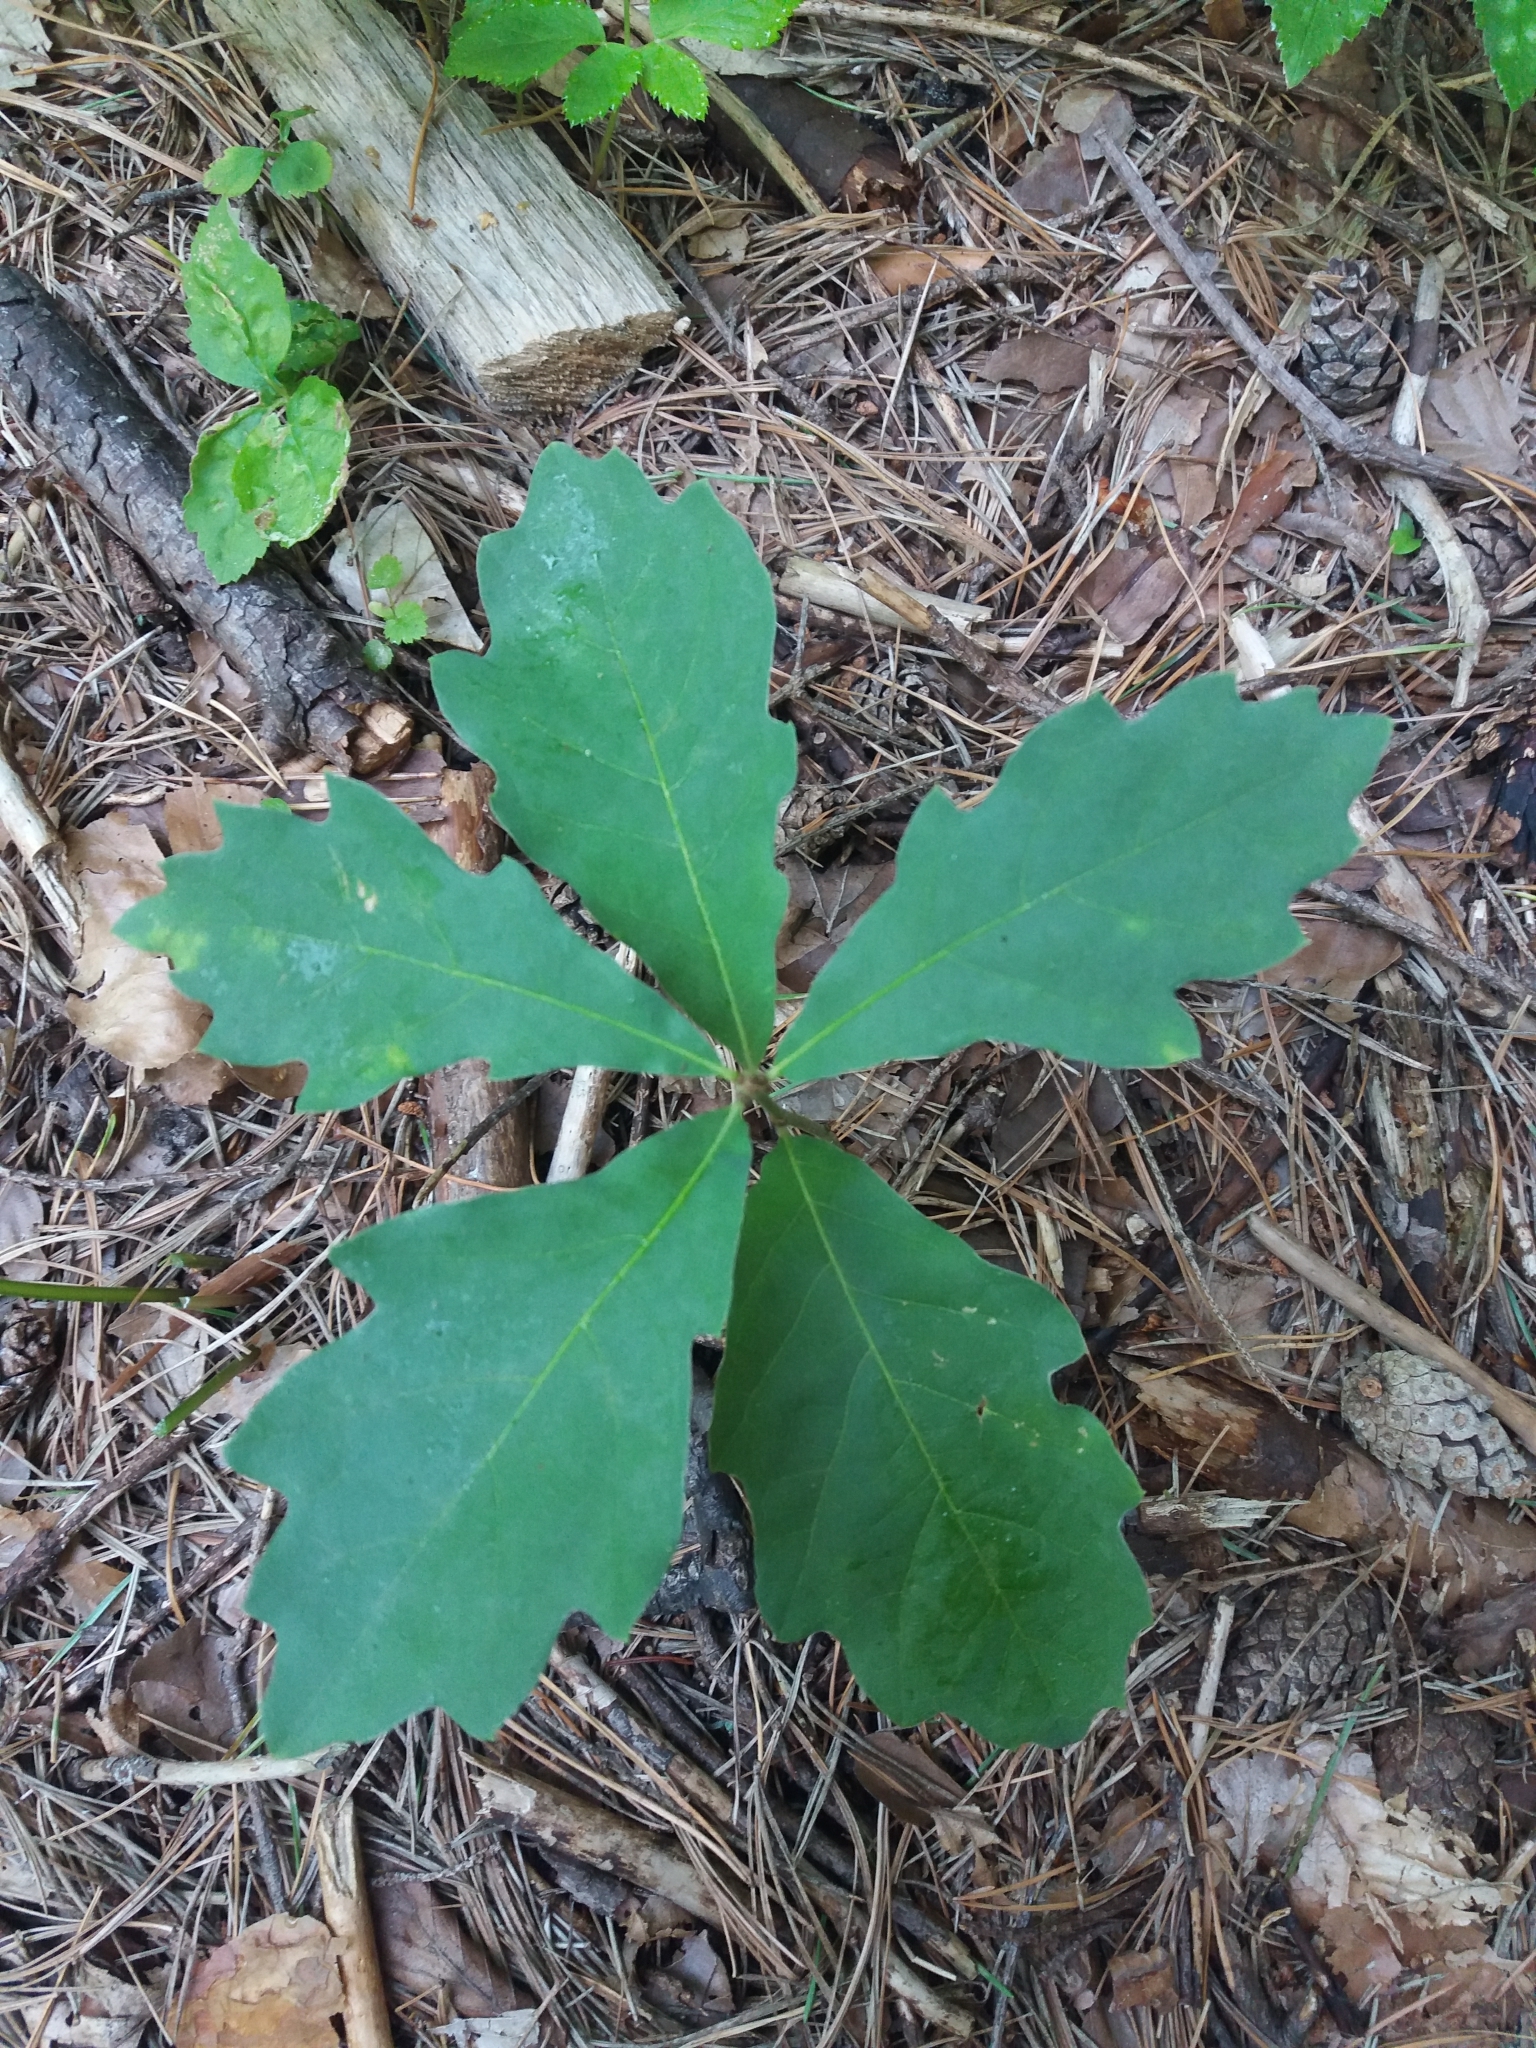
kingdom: Plantae
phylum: Tracheophyta
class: Magnoliopsida
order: Fagales
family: Fagaceae
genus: Quercus
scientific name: Quercus rubra
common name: Red oak
